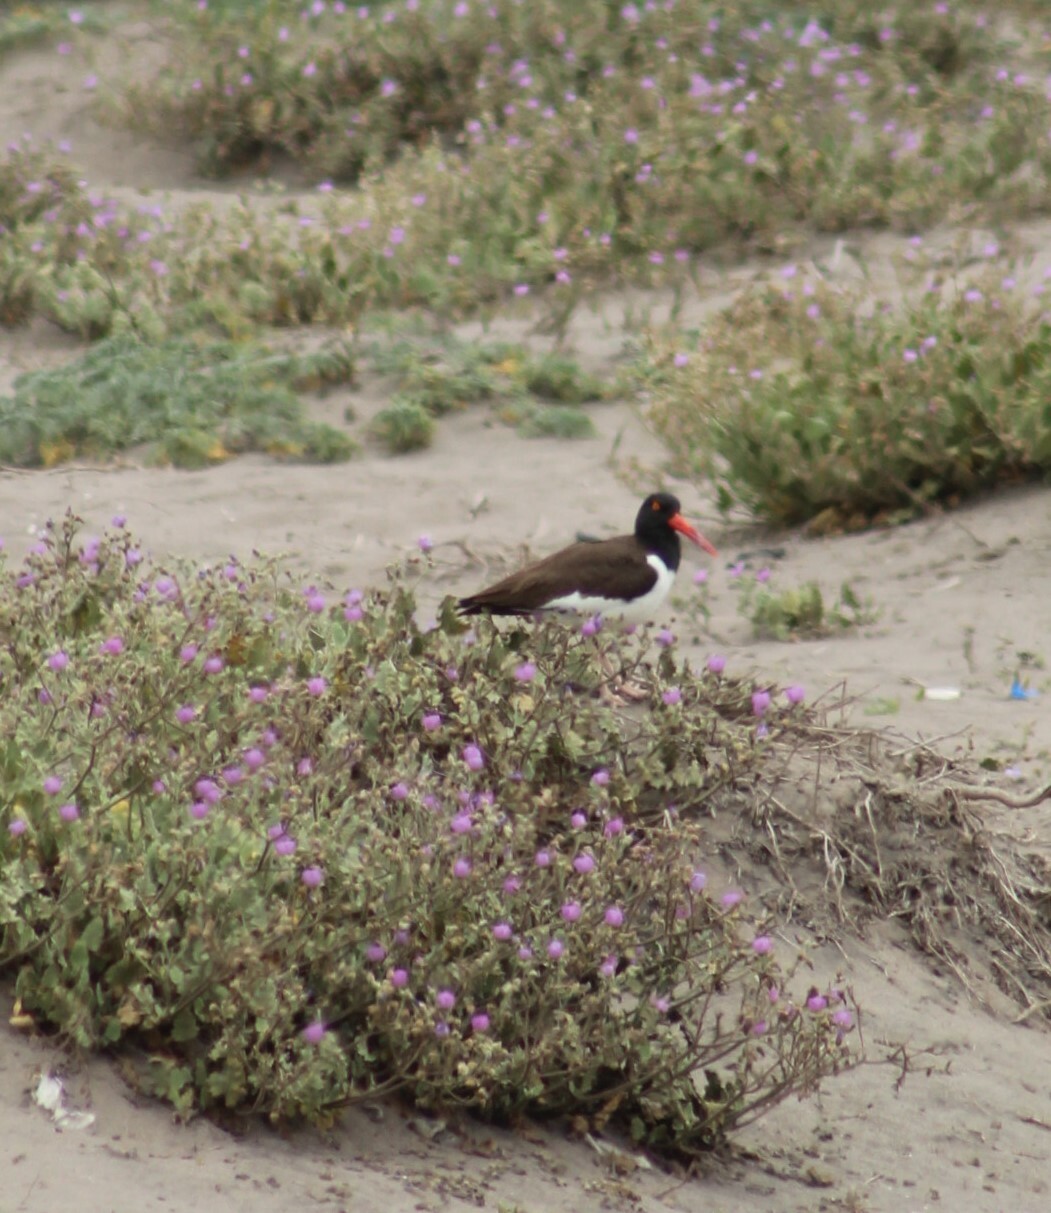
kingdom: Animalia
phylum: Chordata
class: Aves
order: Charadriiformes
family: Haematopodidae
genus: Haematopus
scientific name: Haematopus palliatus
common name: American oystercatcher
